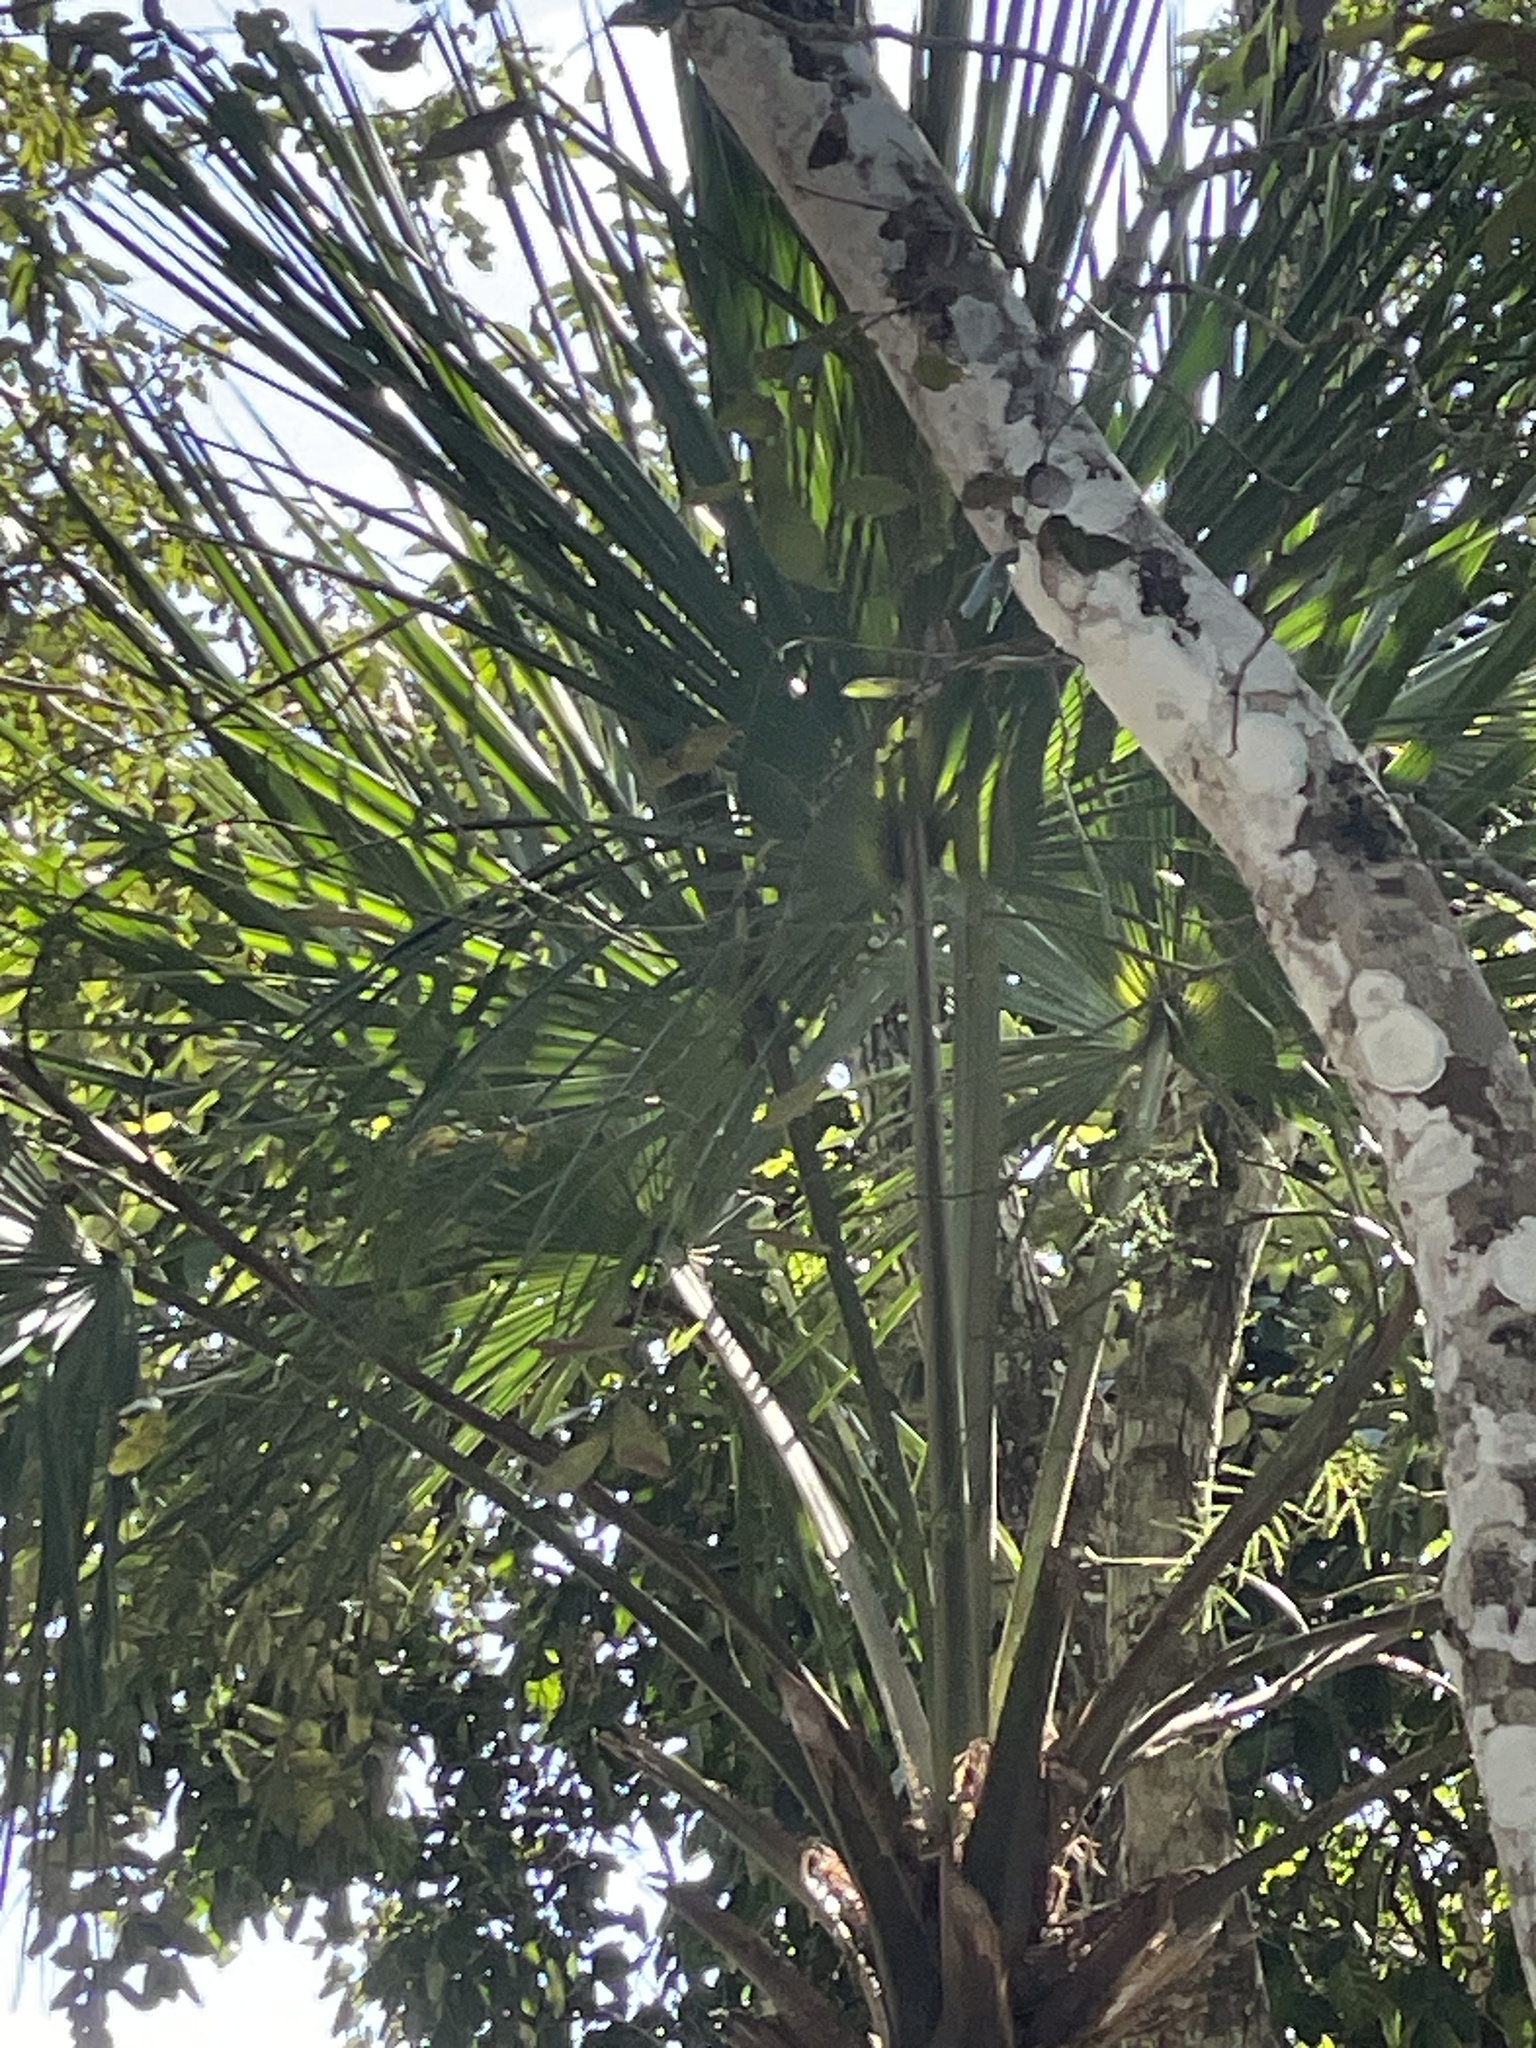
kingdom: Plantae
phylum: Tracheophyta
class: Liliopsida
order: Arecales
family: Arecaceae
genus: Sabal
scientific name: Sabal yapa
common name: Thatch palm
